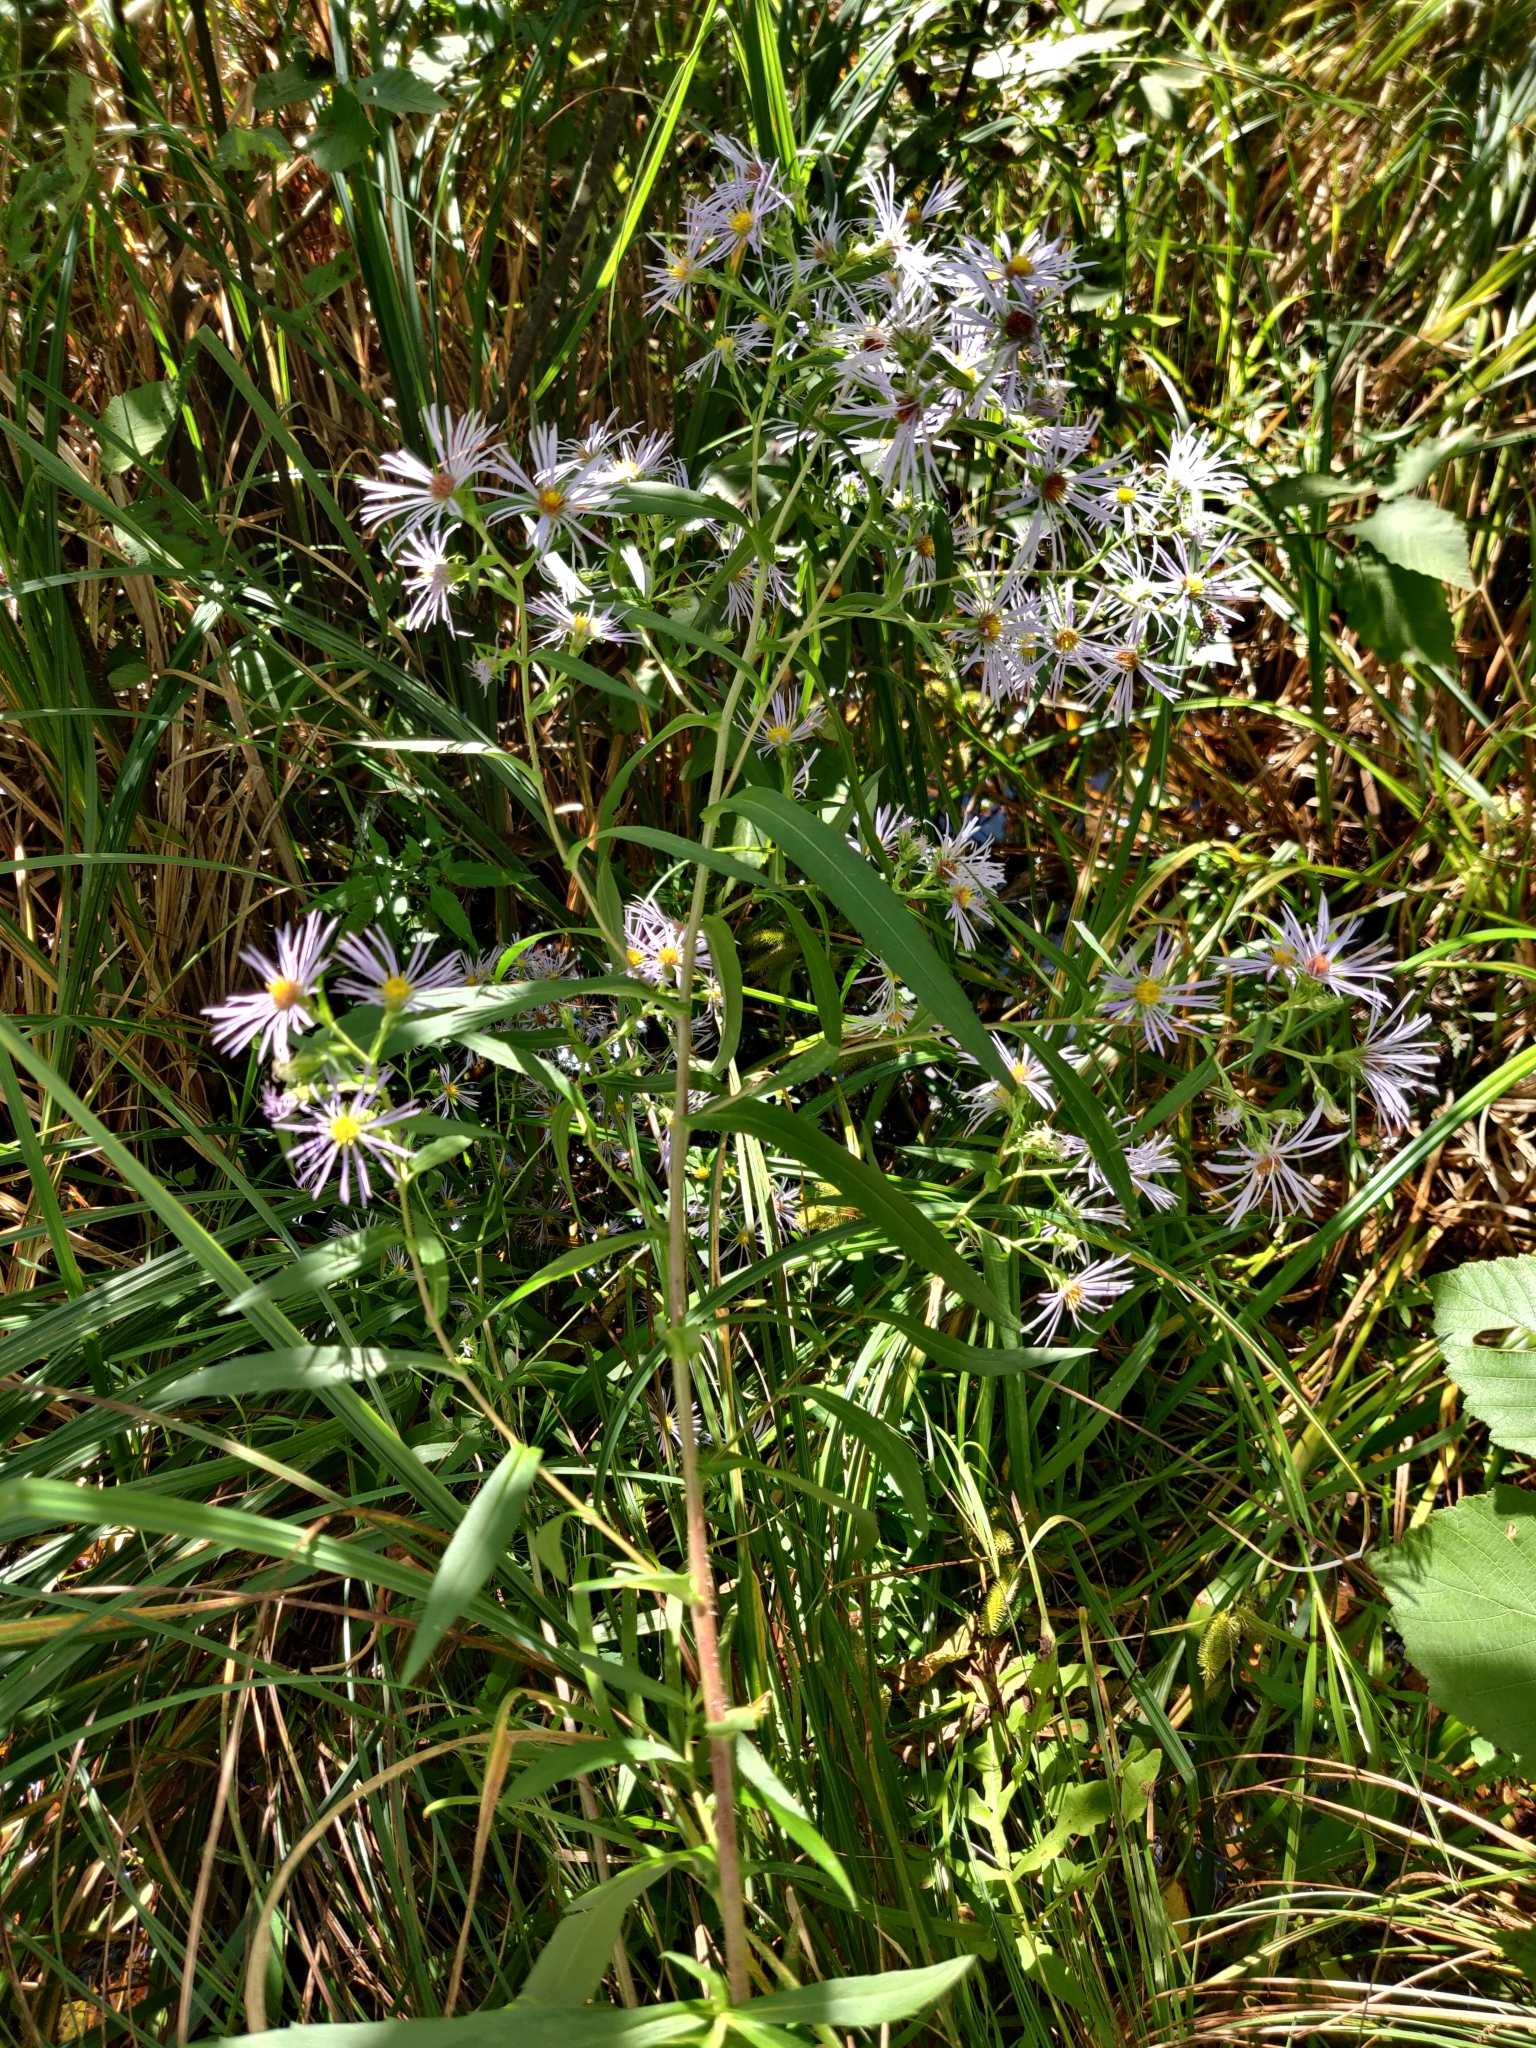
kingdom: Plantae
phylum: Tracheophyta
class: Magnoliopsida
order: Asterales
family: Asteraceae
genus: Symphyotrichum
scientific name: Symphyotrichum puniceum
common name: Bog aster
